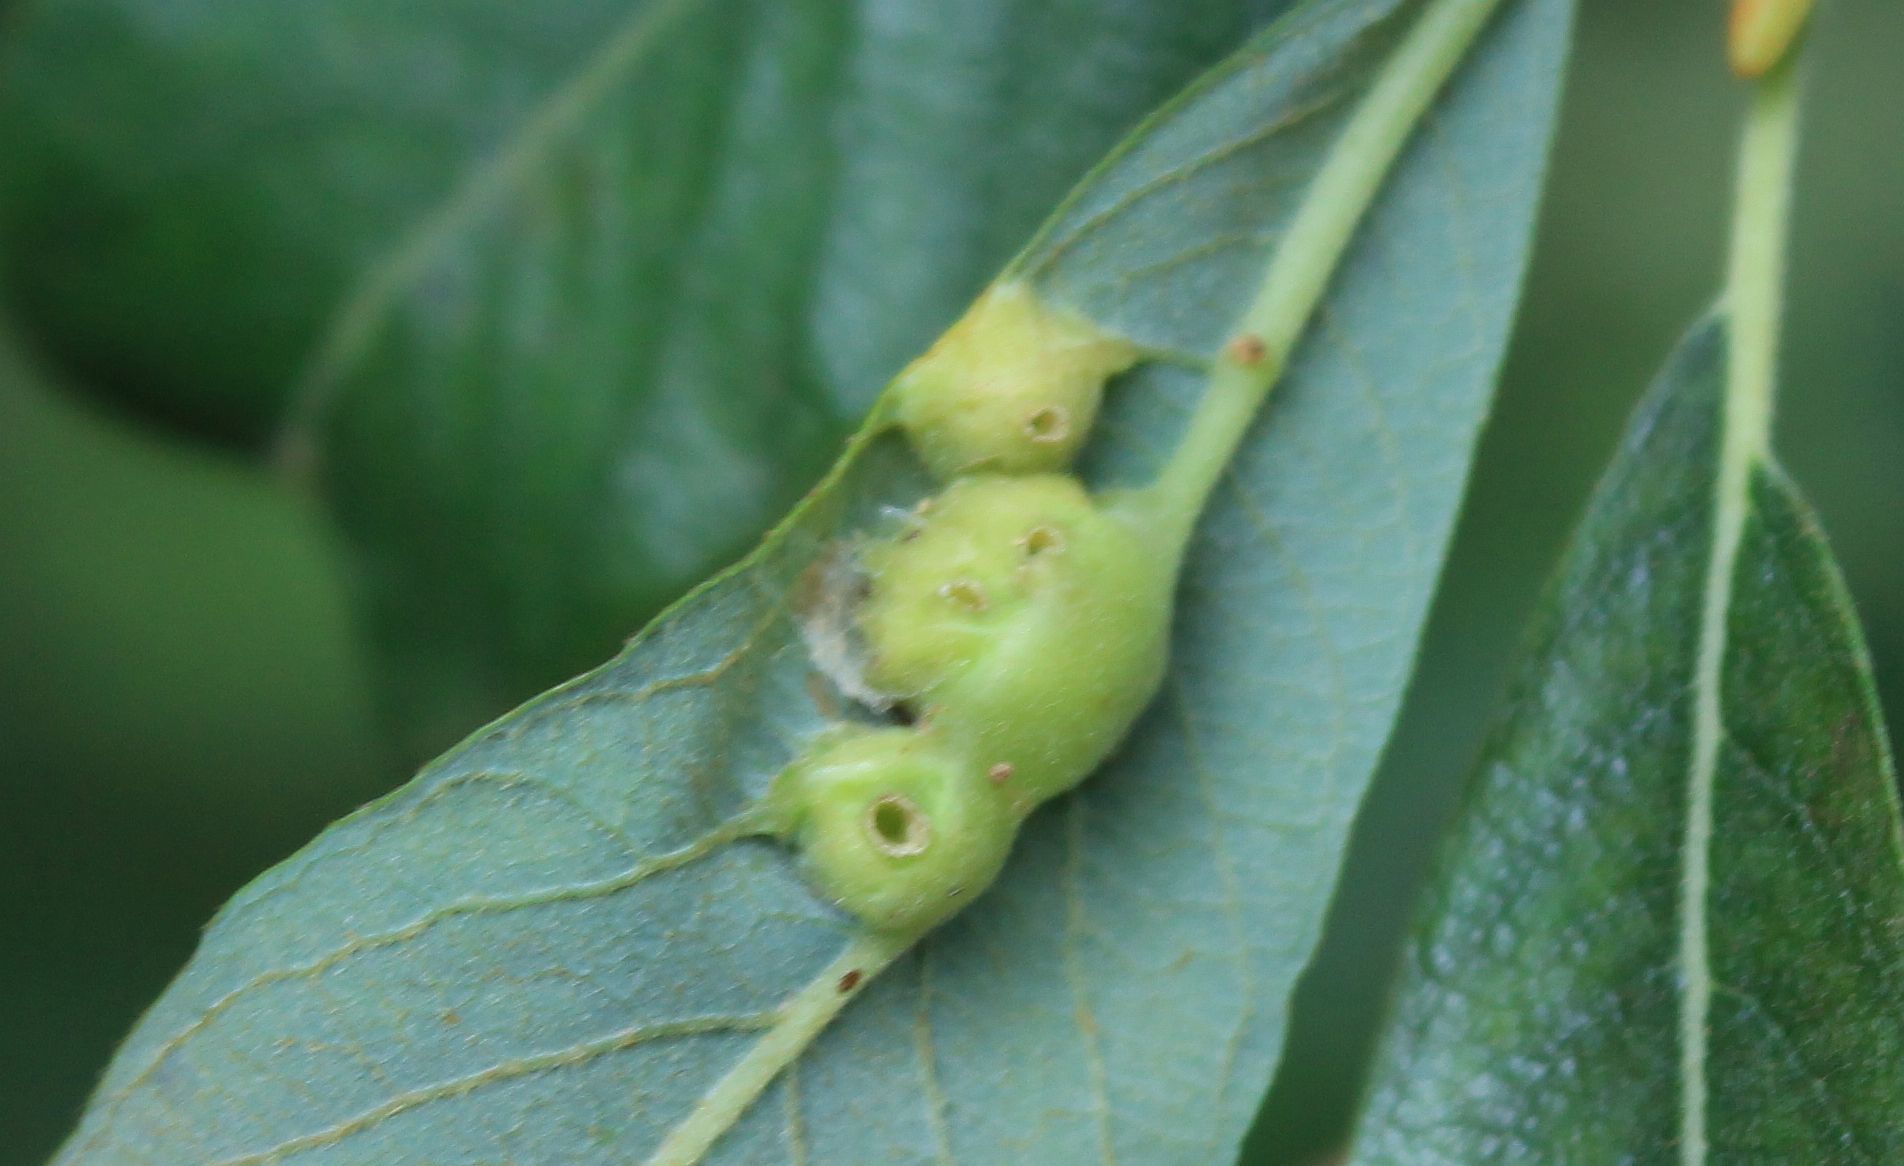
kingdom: Animalia
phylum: Arthropoda
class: Insecta
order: Diptera
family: Cecidomyiidae
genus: Iteomyia
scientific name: Iteomyia major
